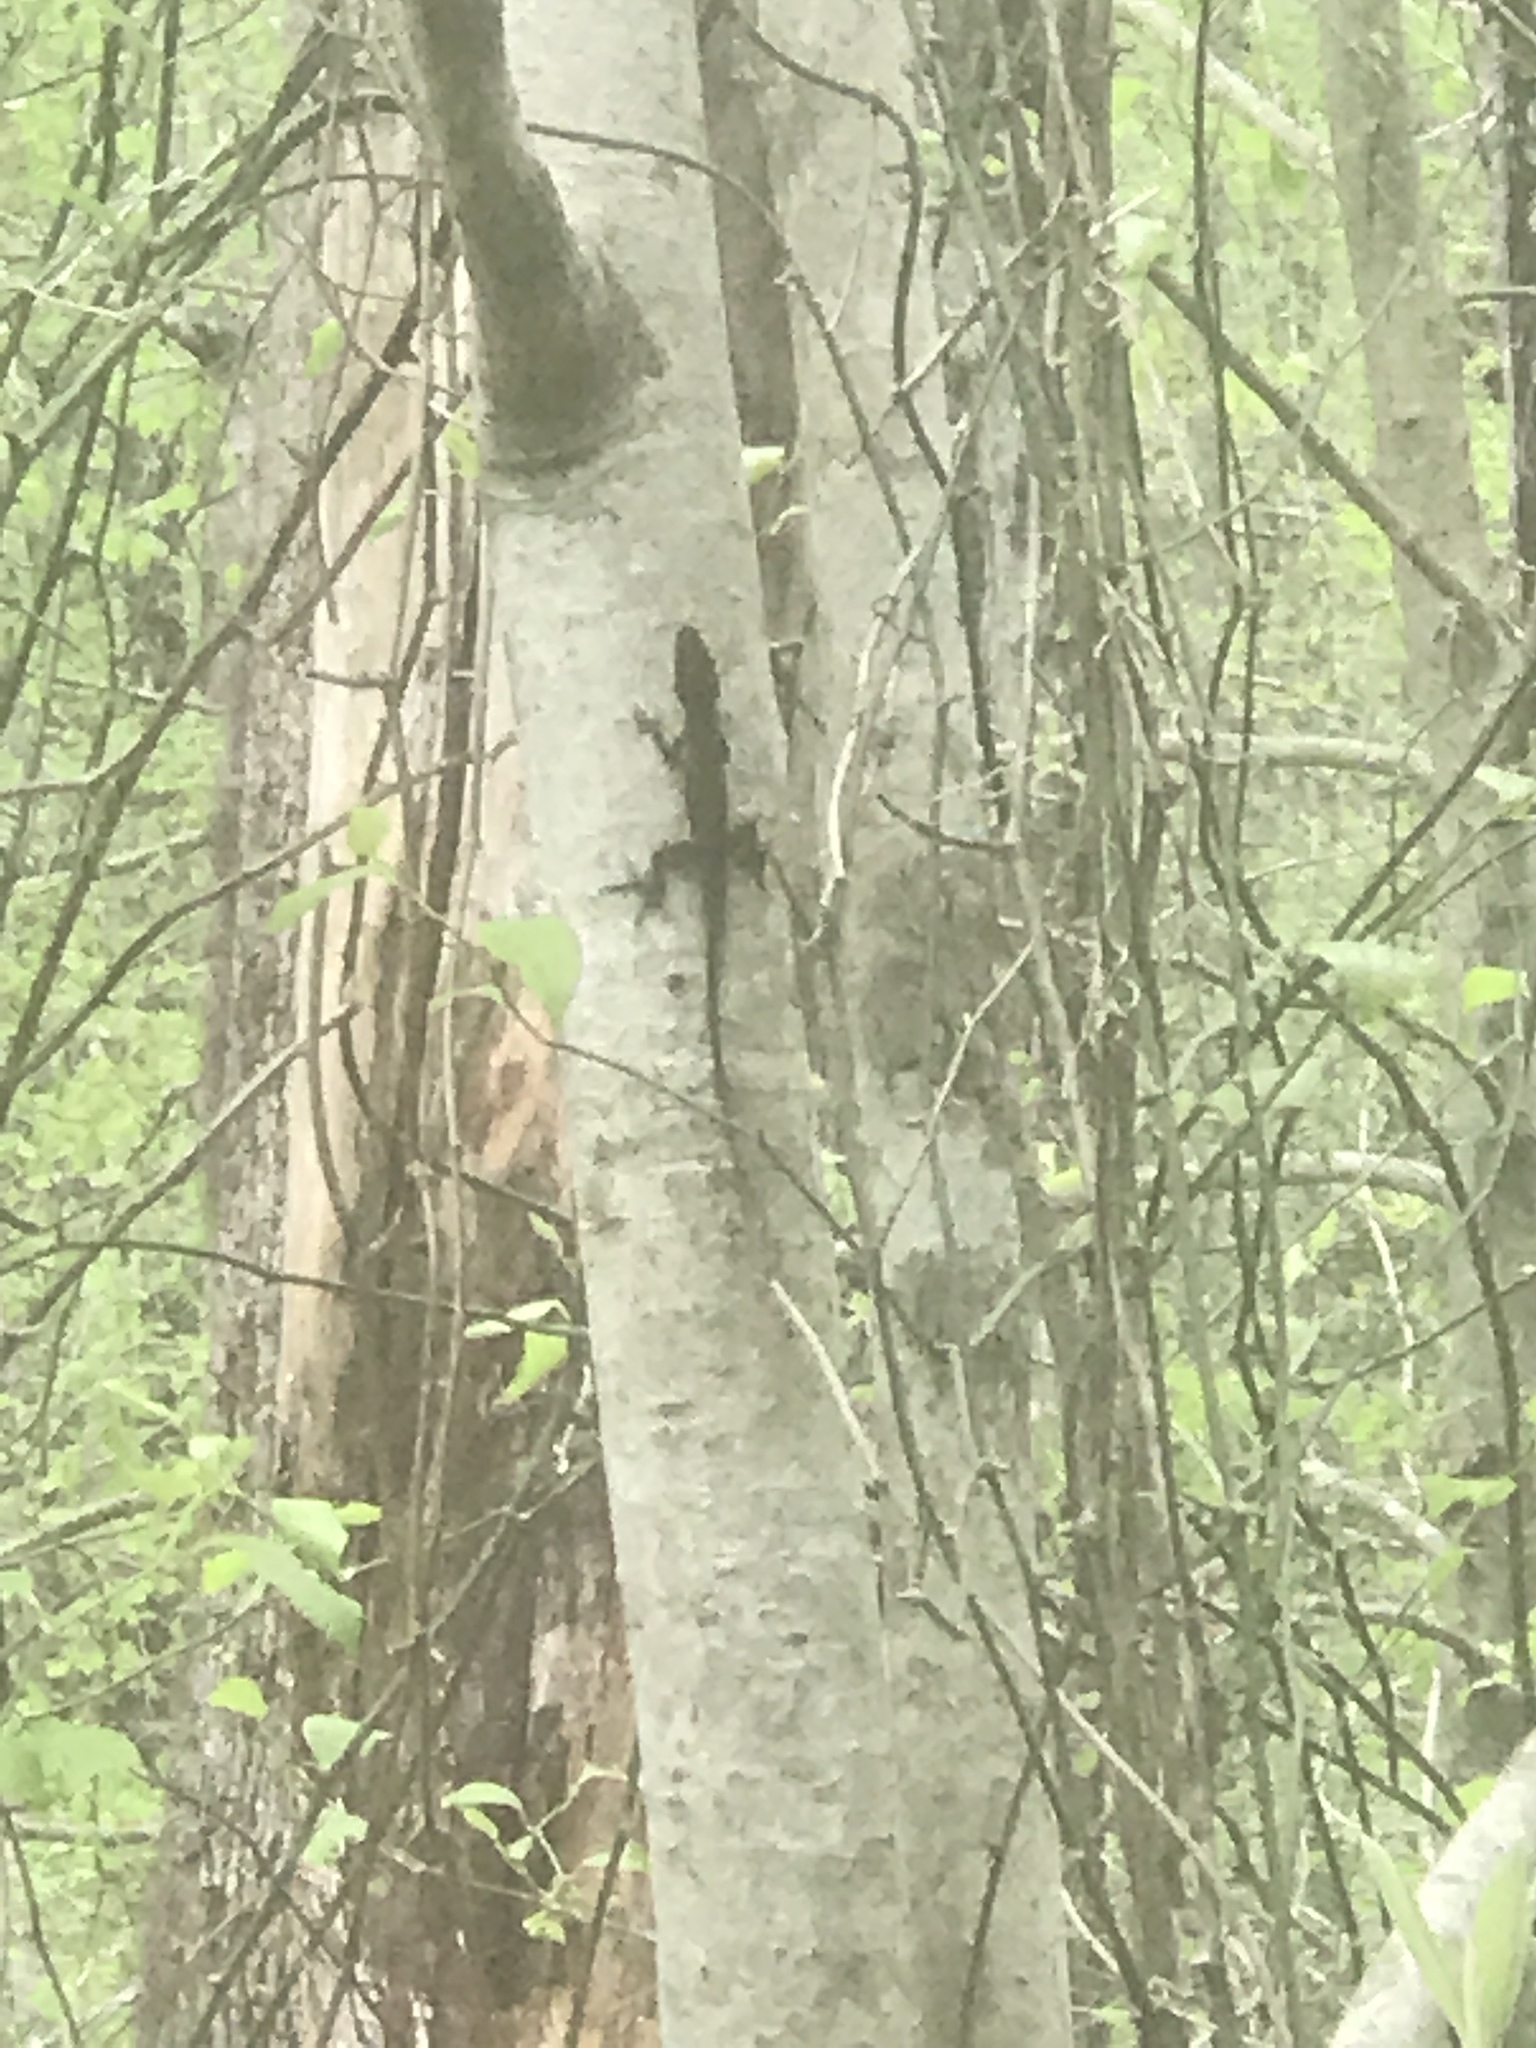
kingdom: Animalia
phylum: Chordata
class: Squamata
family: Dactyloidae
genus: Anolis
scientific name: Anolis carolinensis
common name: Green anole
